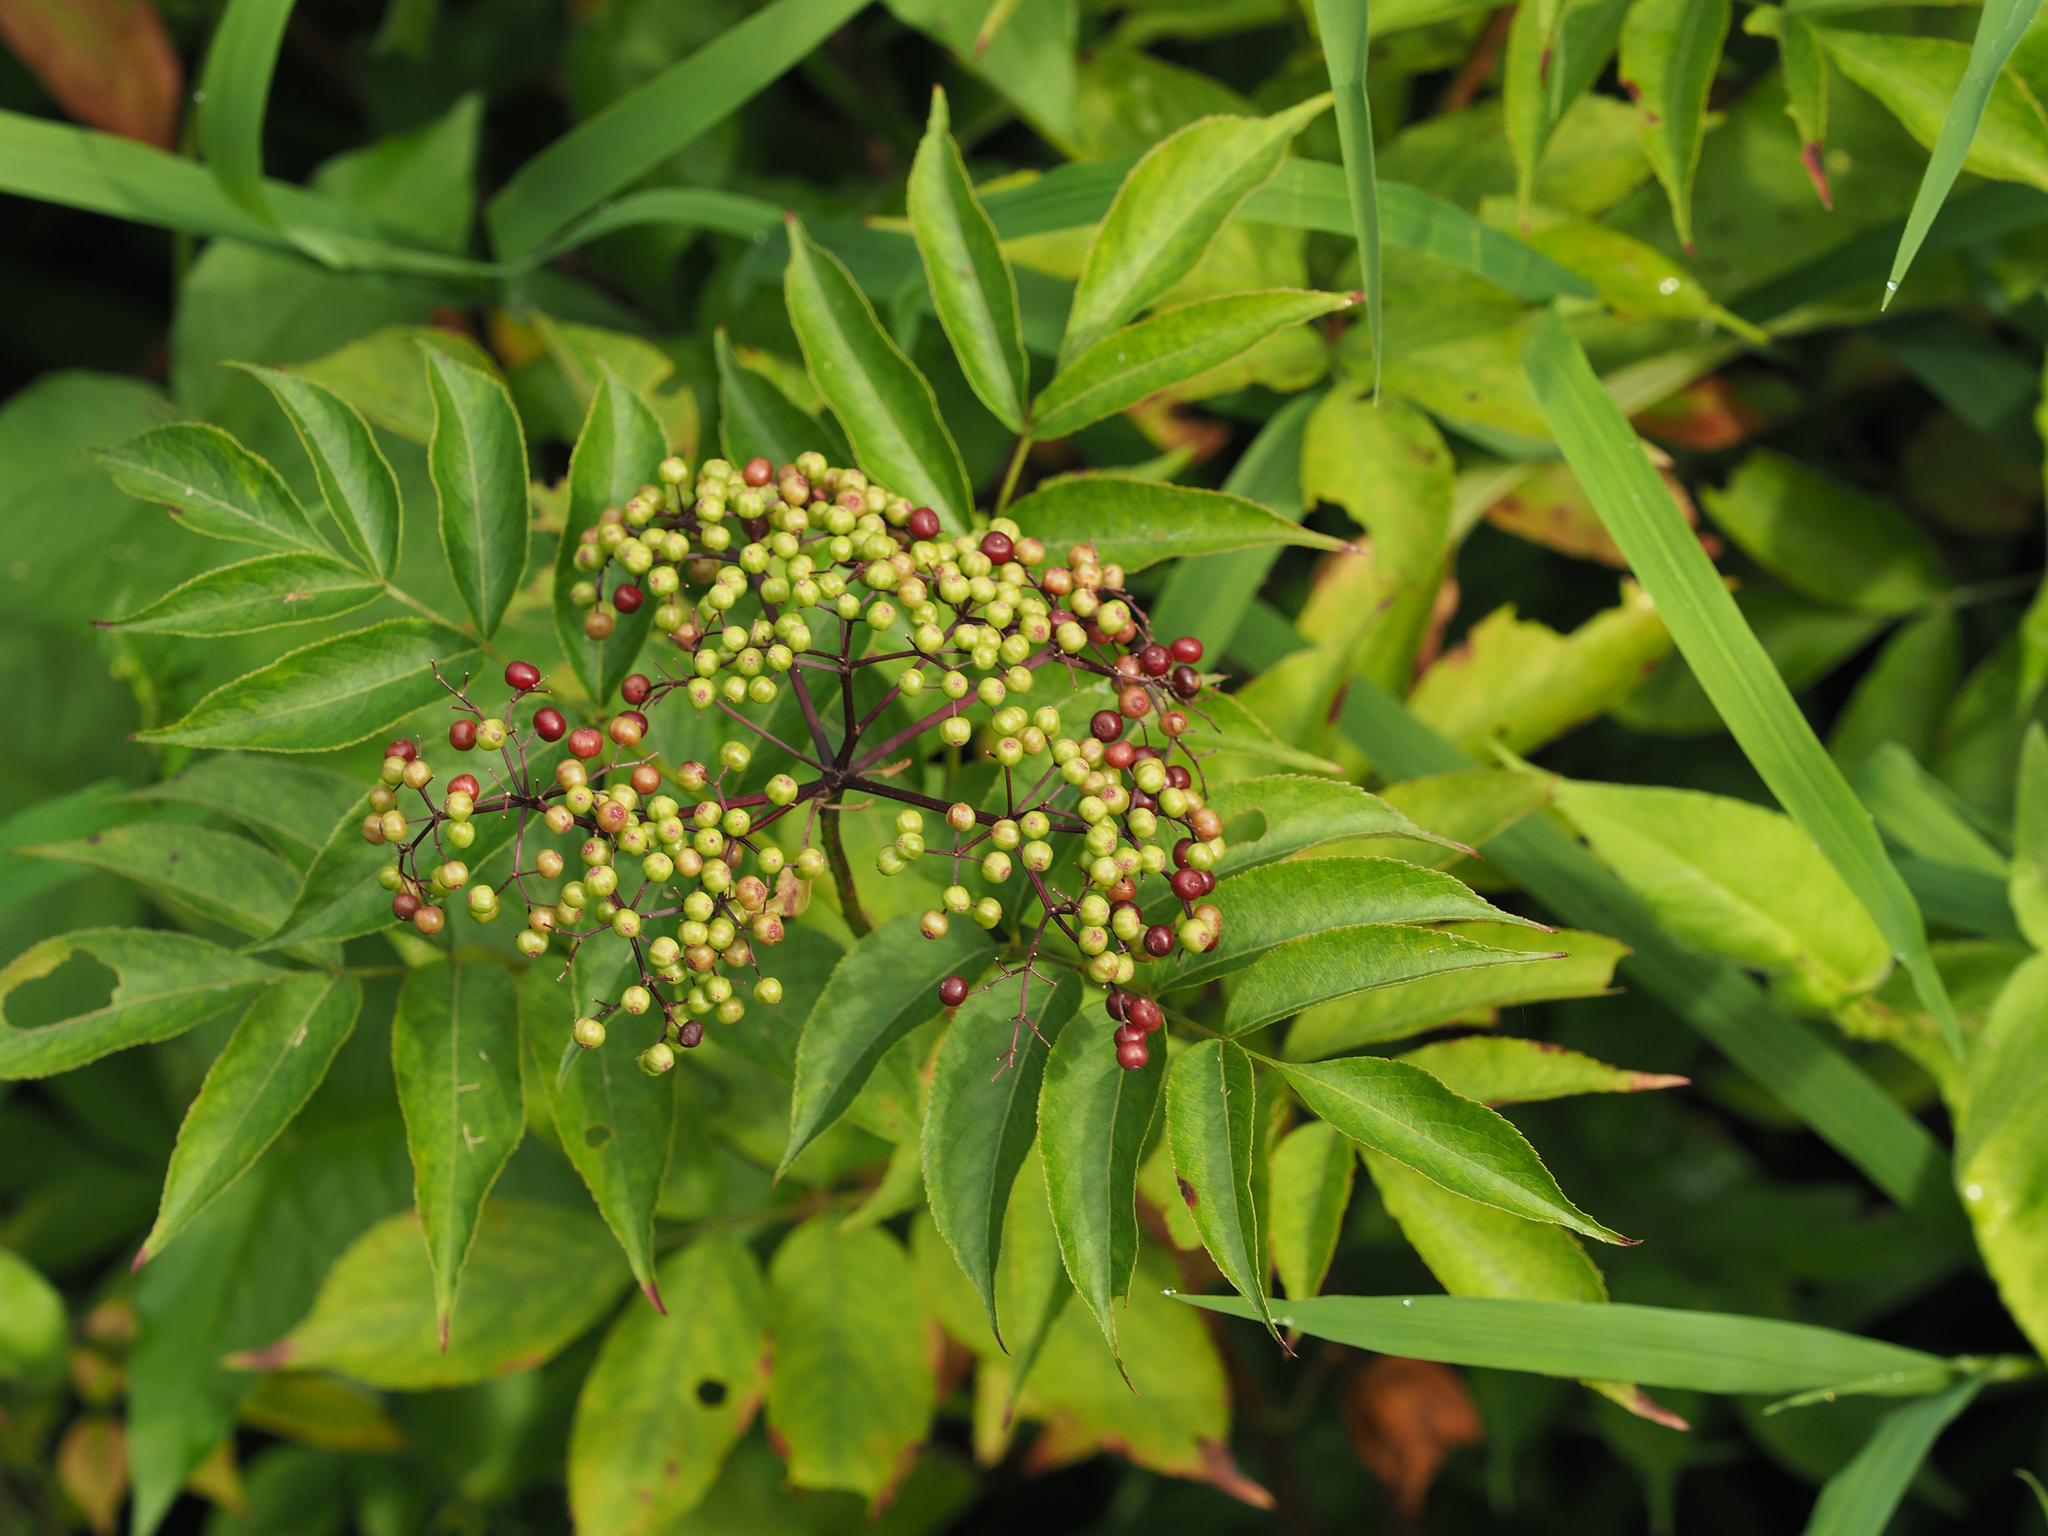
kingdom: Plantae
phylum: Tracheophyta
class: Magnoliopsida
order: Dipsacales
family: Viburnaceae
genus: Sambucus
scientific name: Sambucus canadensis
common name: American elder
